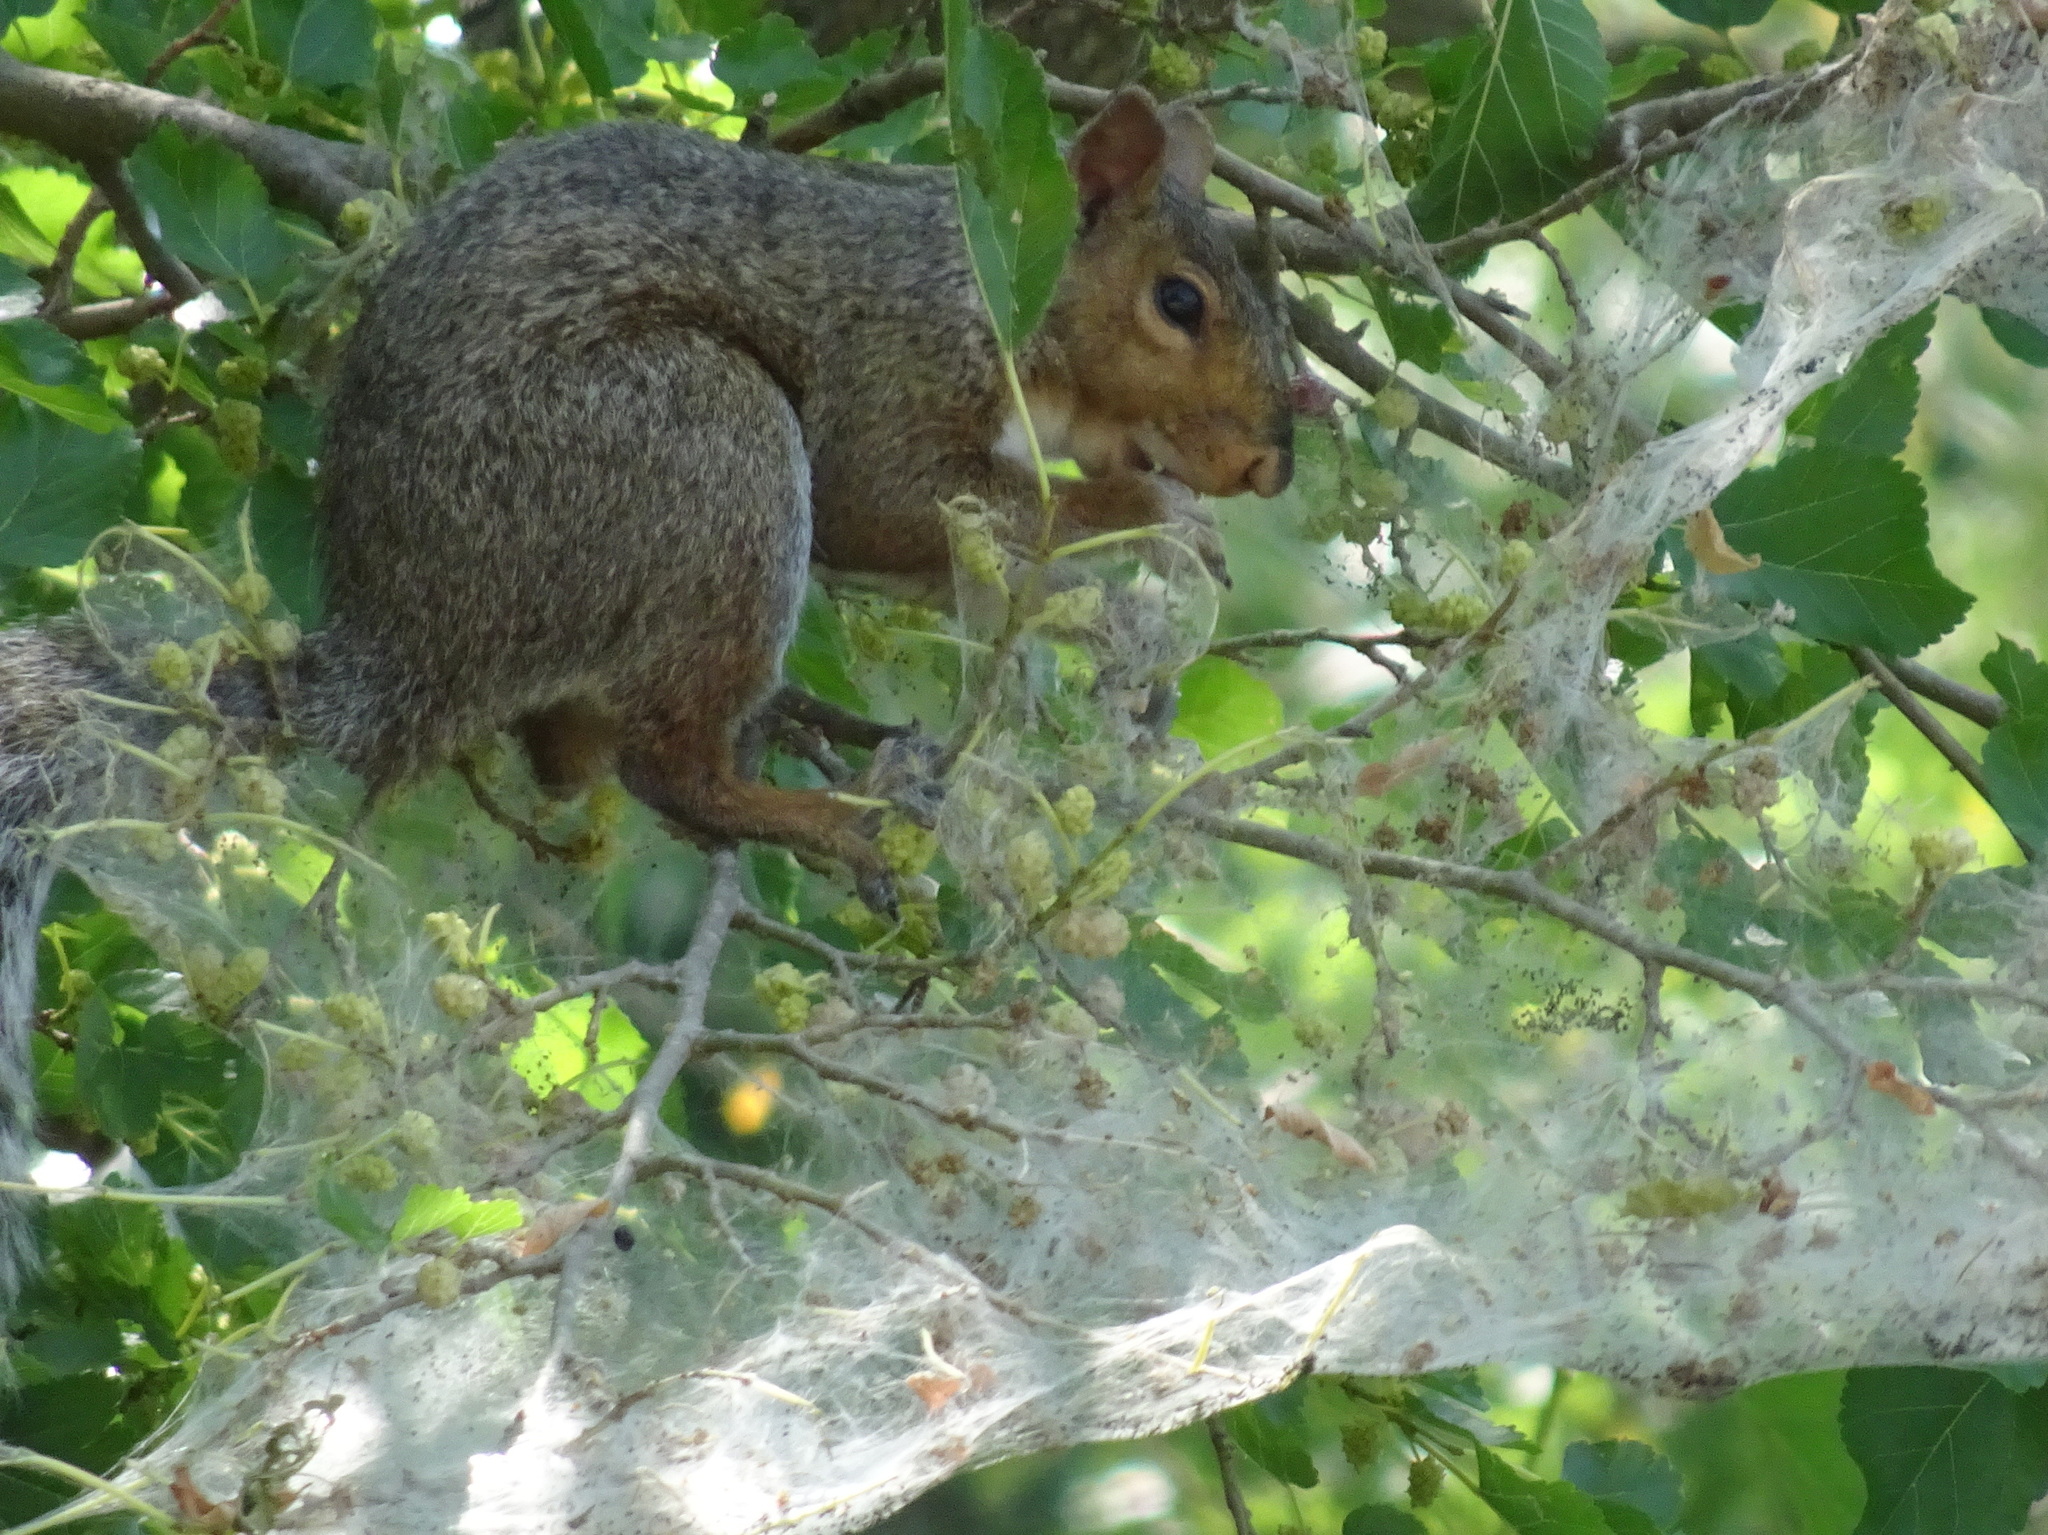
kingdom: Animalia
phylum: Chordata
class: Mammalia
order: Rodentia
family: Sciuridae
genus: Sciurus
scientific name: Sciurus carolinensis
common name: Eastern gray squirrel
